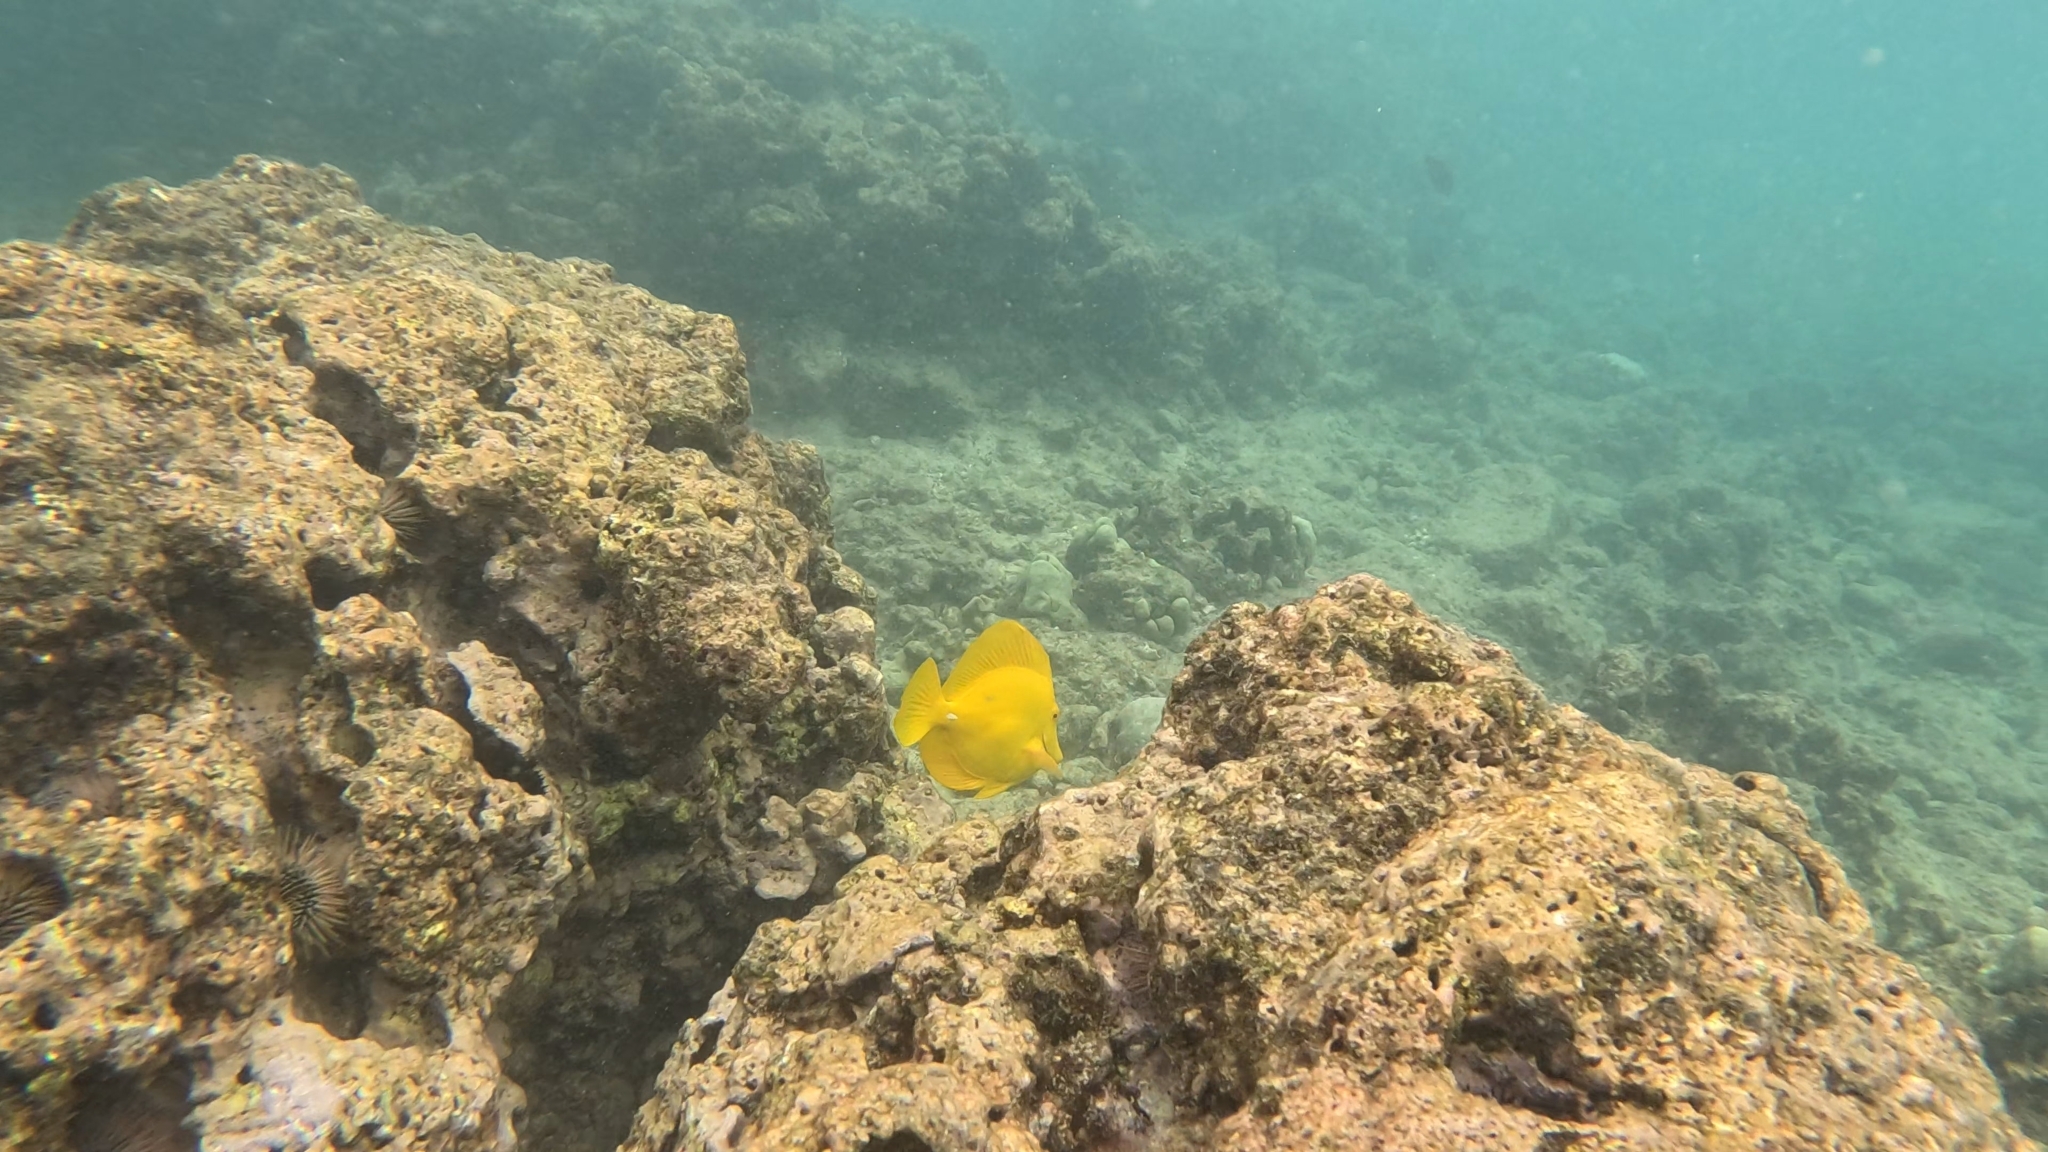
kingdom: Animalia
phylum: Chordata
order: Perciformes
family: Acanthuridae
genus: Zebrasoma
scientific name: Zebrasoma flavescens
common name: Yellow tang
